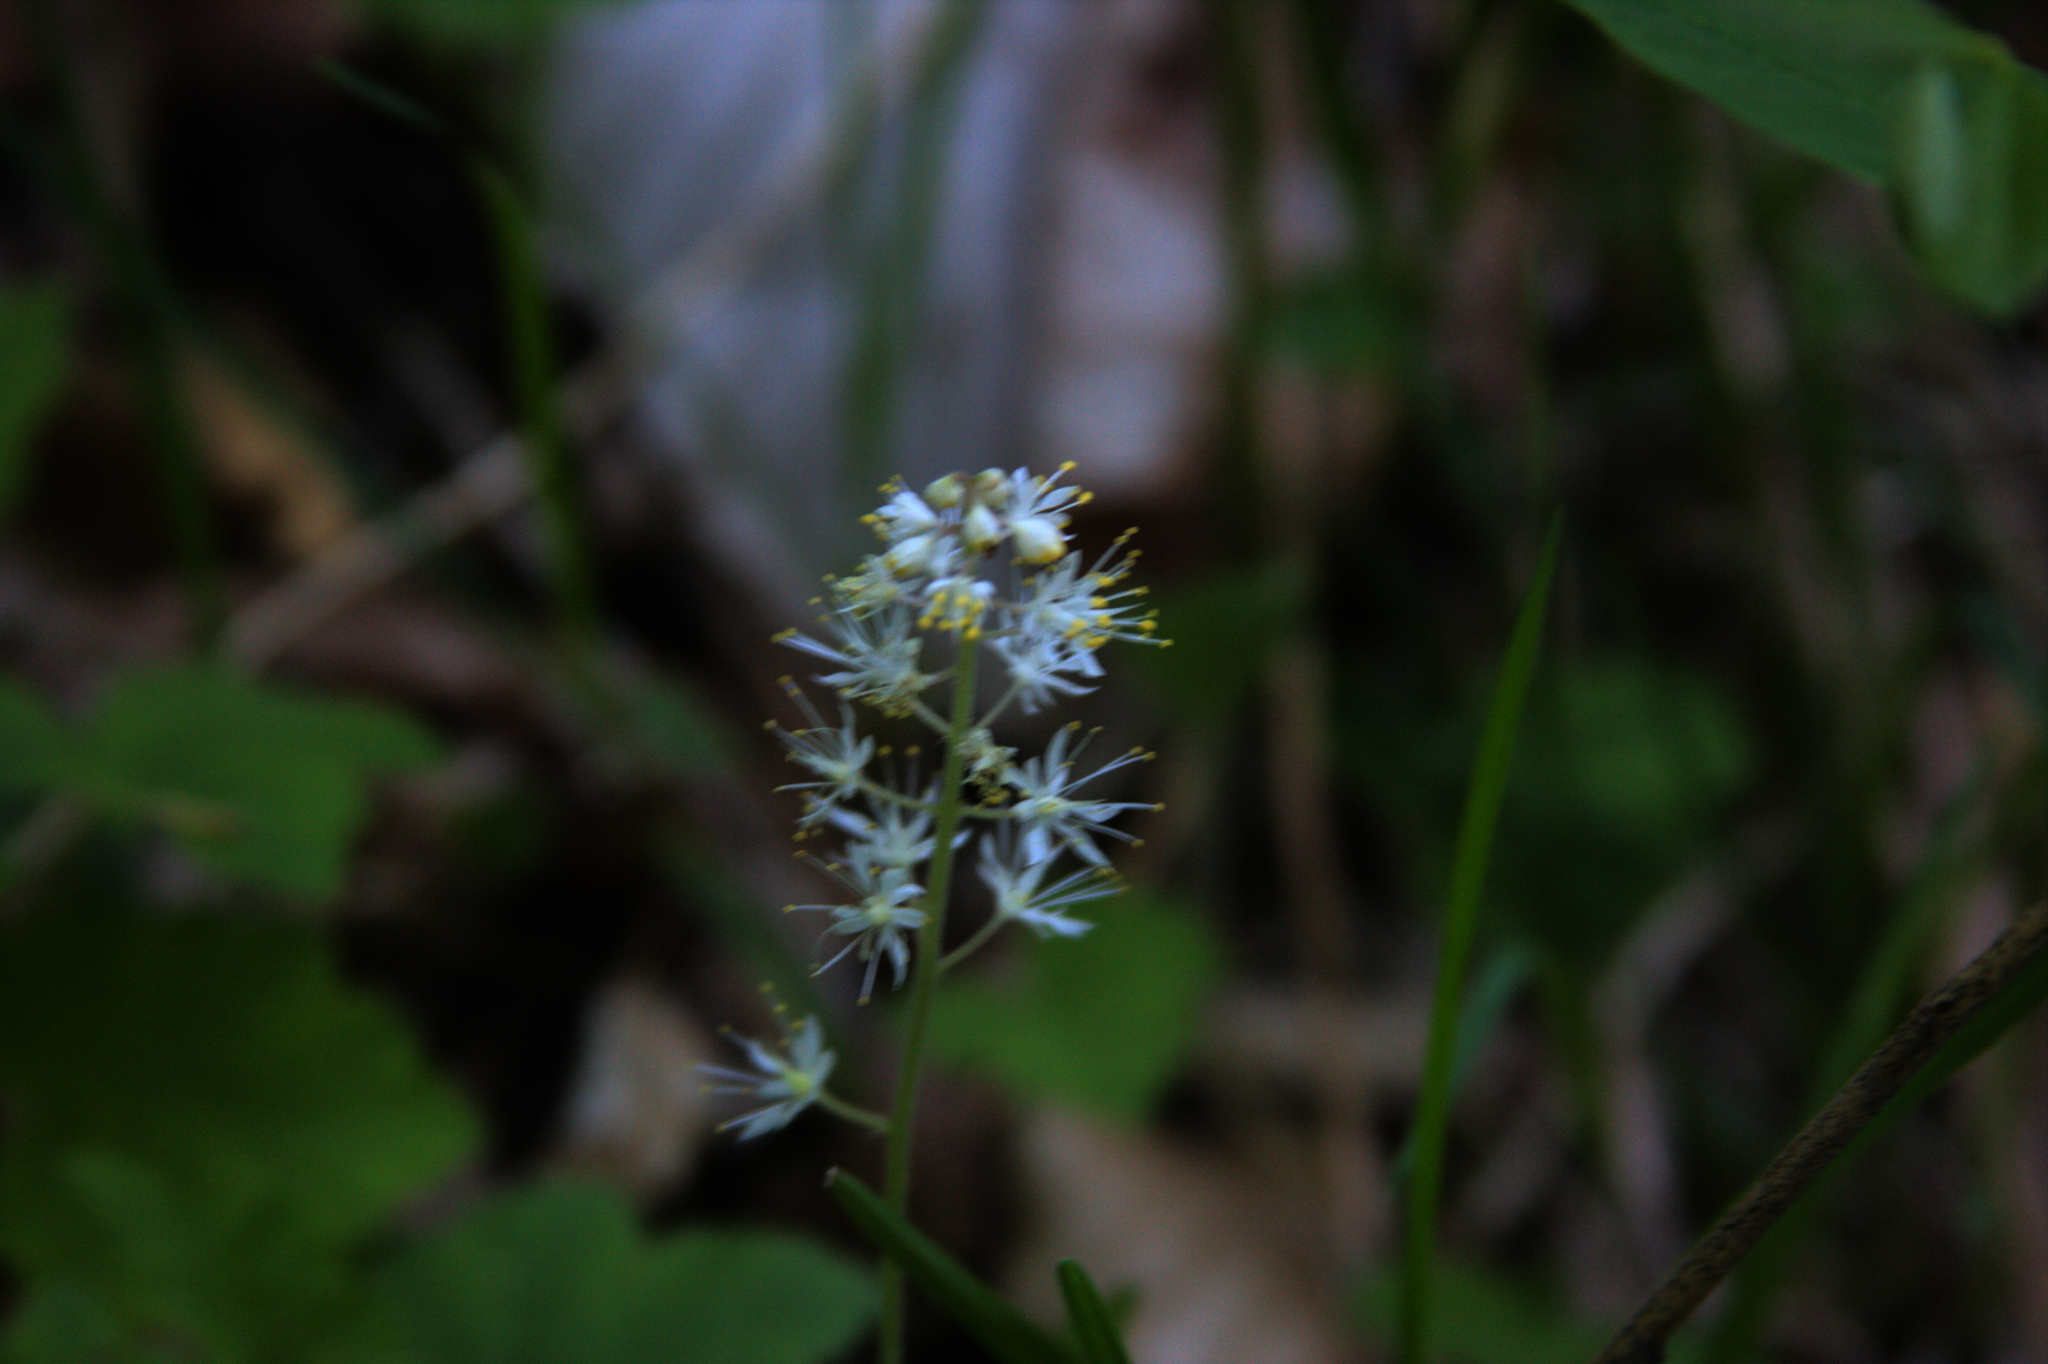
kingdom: Plantae
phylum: Tracheophyta
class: Magnoliopsida
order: Saxifragales
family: Saxifragaceae
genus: Tiarella
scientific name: Tiarella stolonifera
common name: Stoloniferous foamflower
